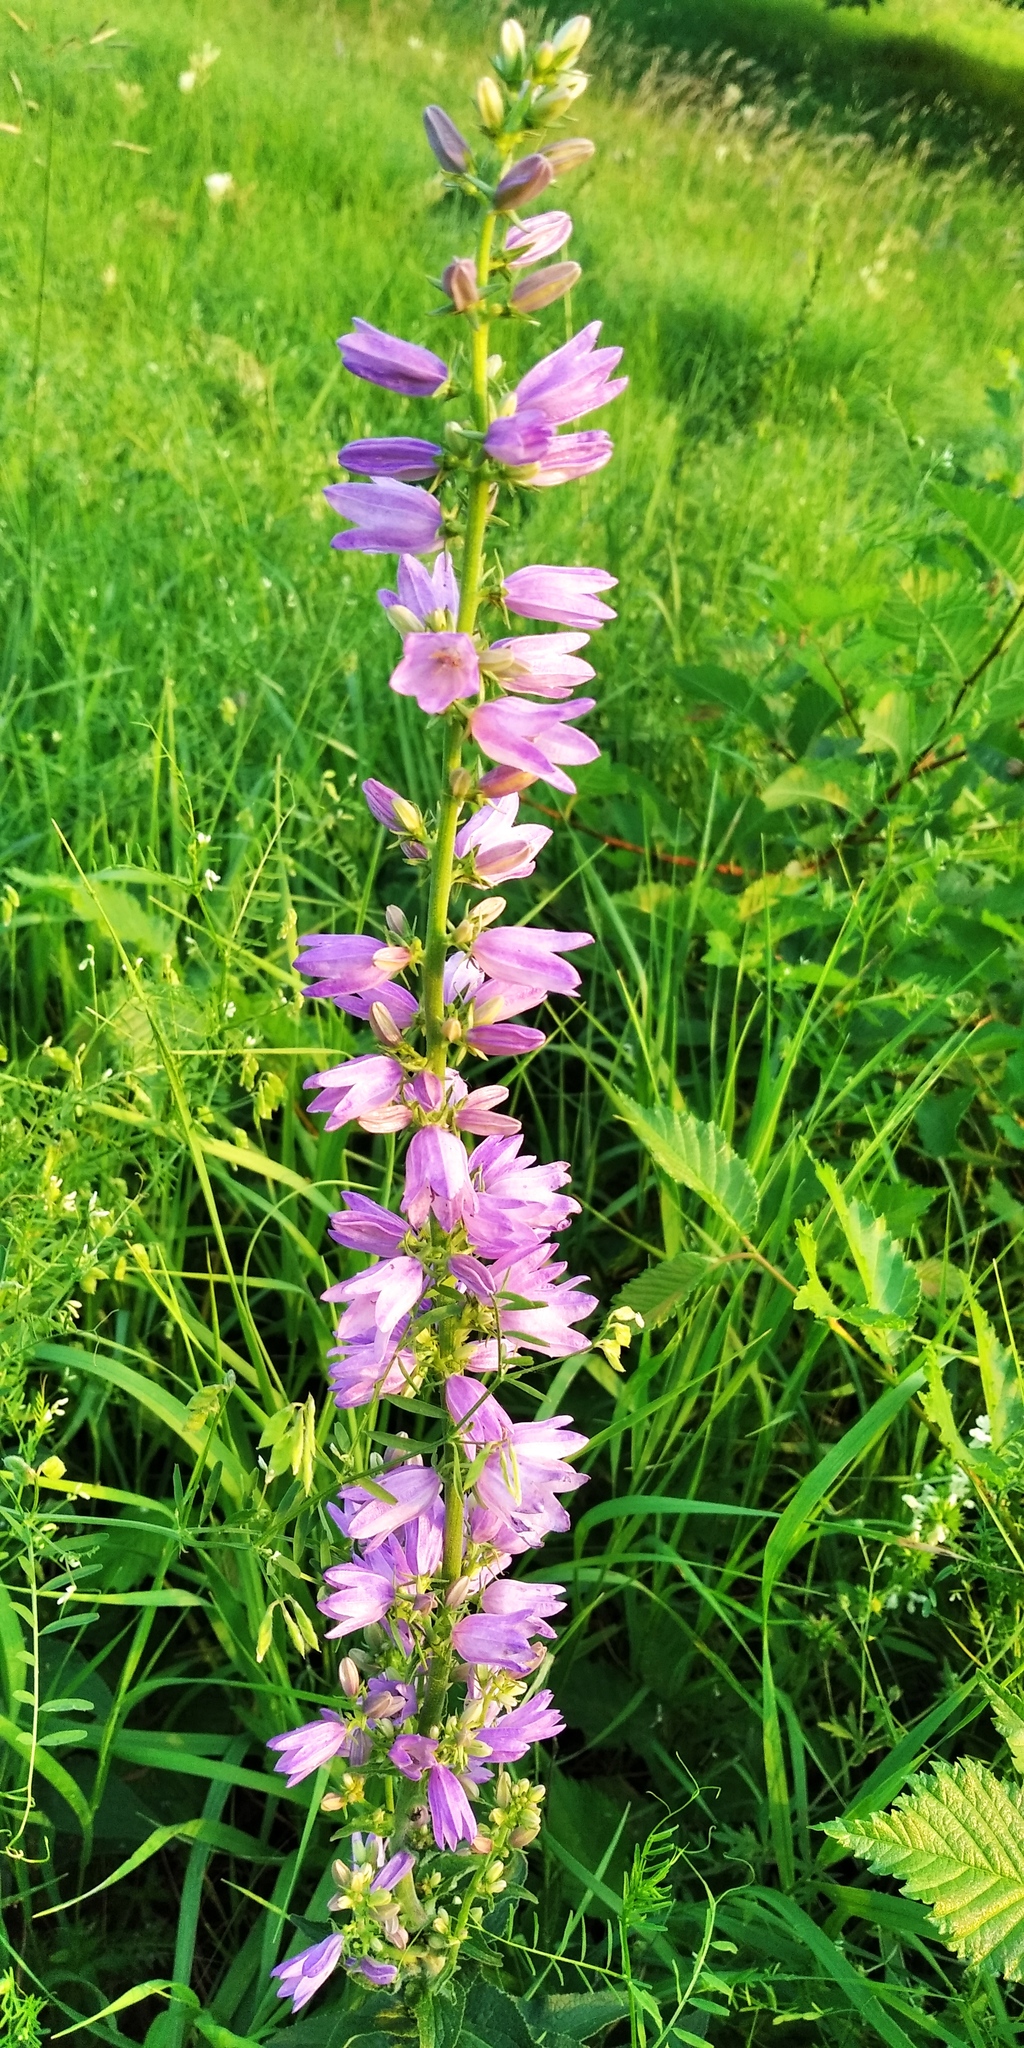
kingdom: Plantae
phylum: Tracheophyta
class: Magnoliopsida
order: Asterales
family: Campanulaceae
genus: Campanula
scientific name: Campanula rapunculoides
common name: Creeping bellflower
